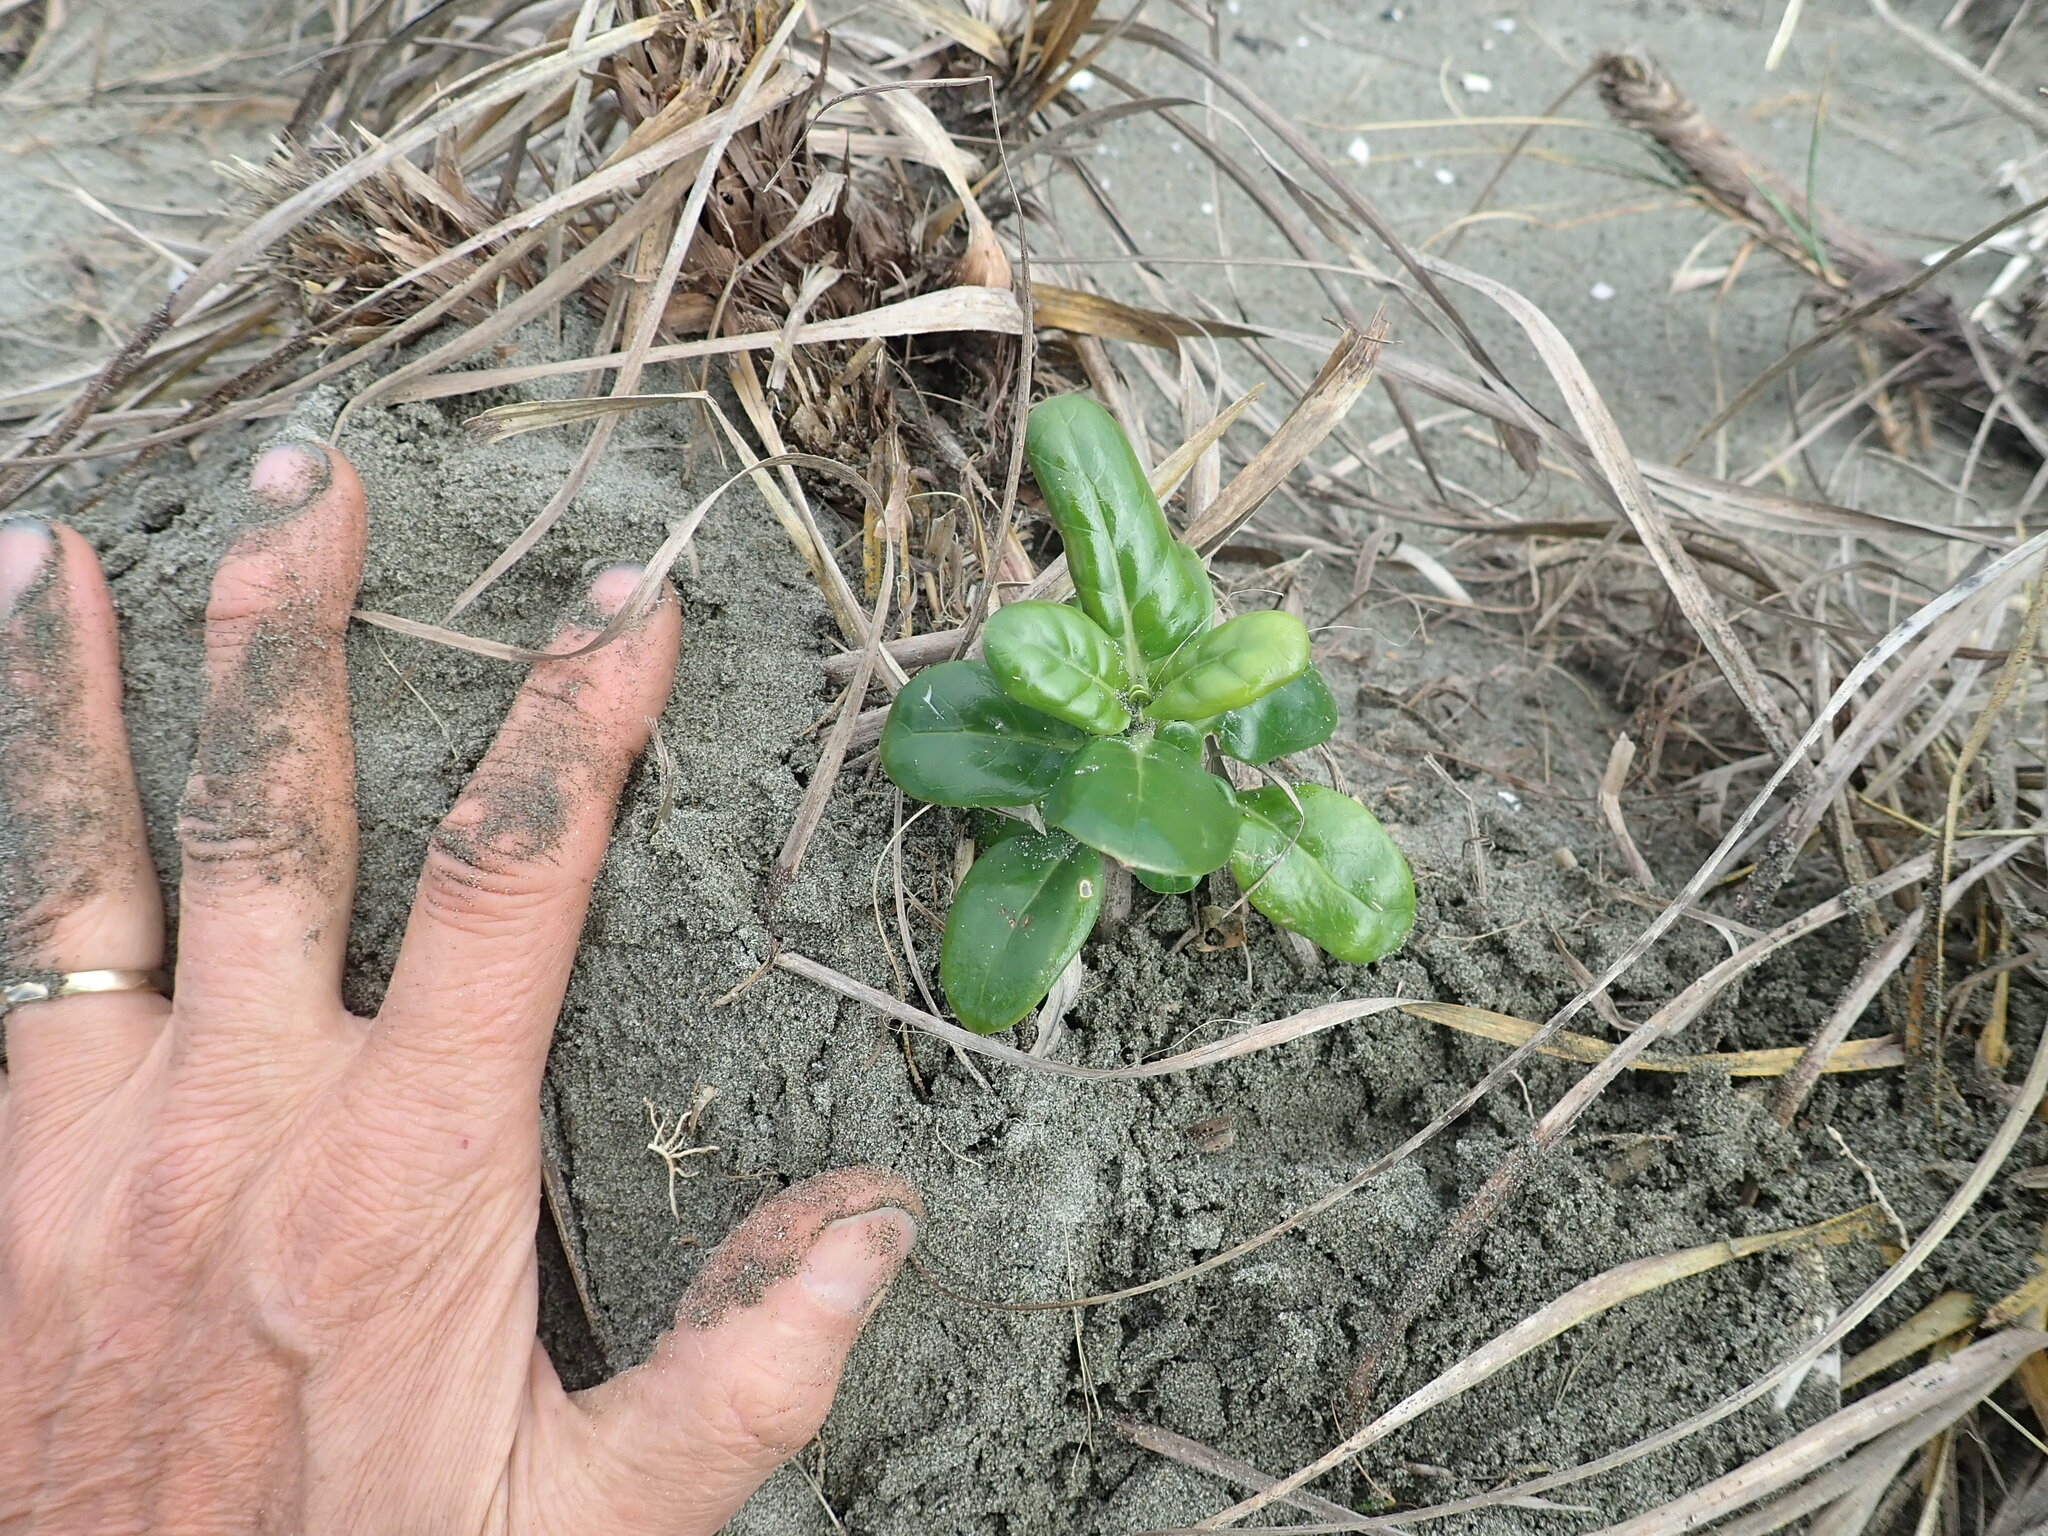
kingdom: Plantae
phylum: Tracheophyta
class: Magnoliopsida
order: Gentianales
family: Rubiaceae
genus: Coprosma
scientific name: Coprosma repens
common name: Tree bedstraw
